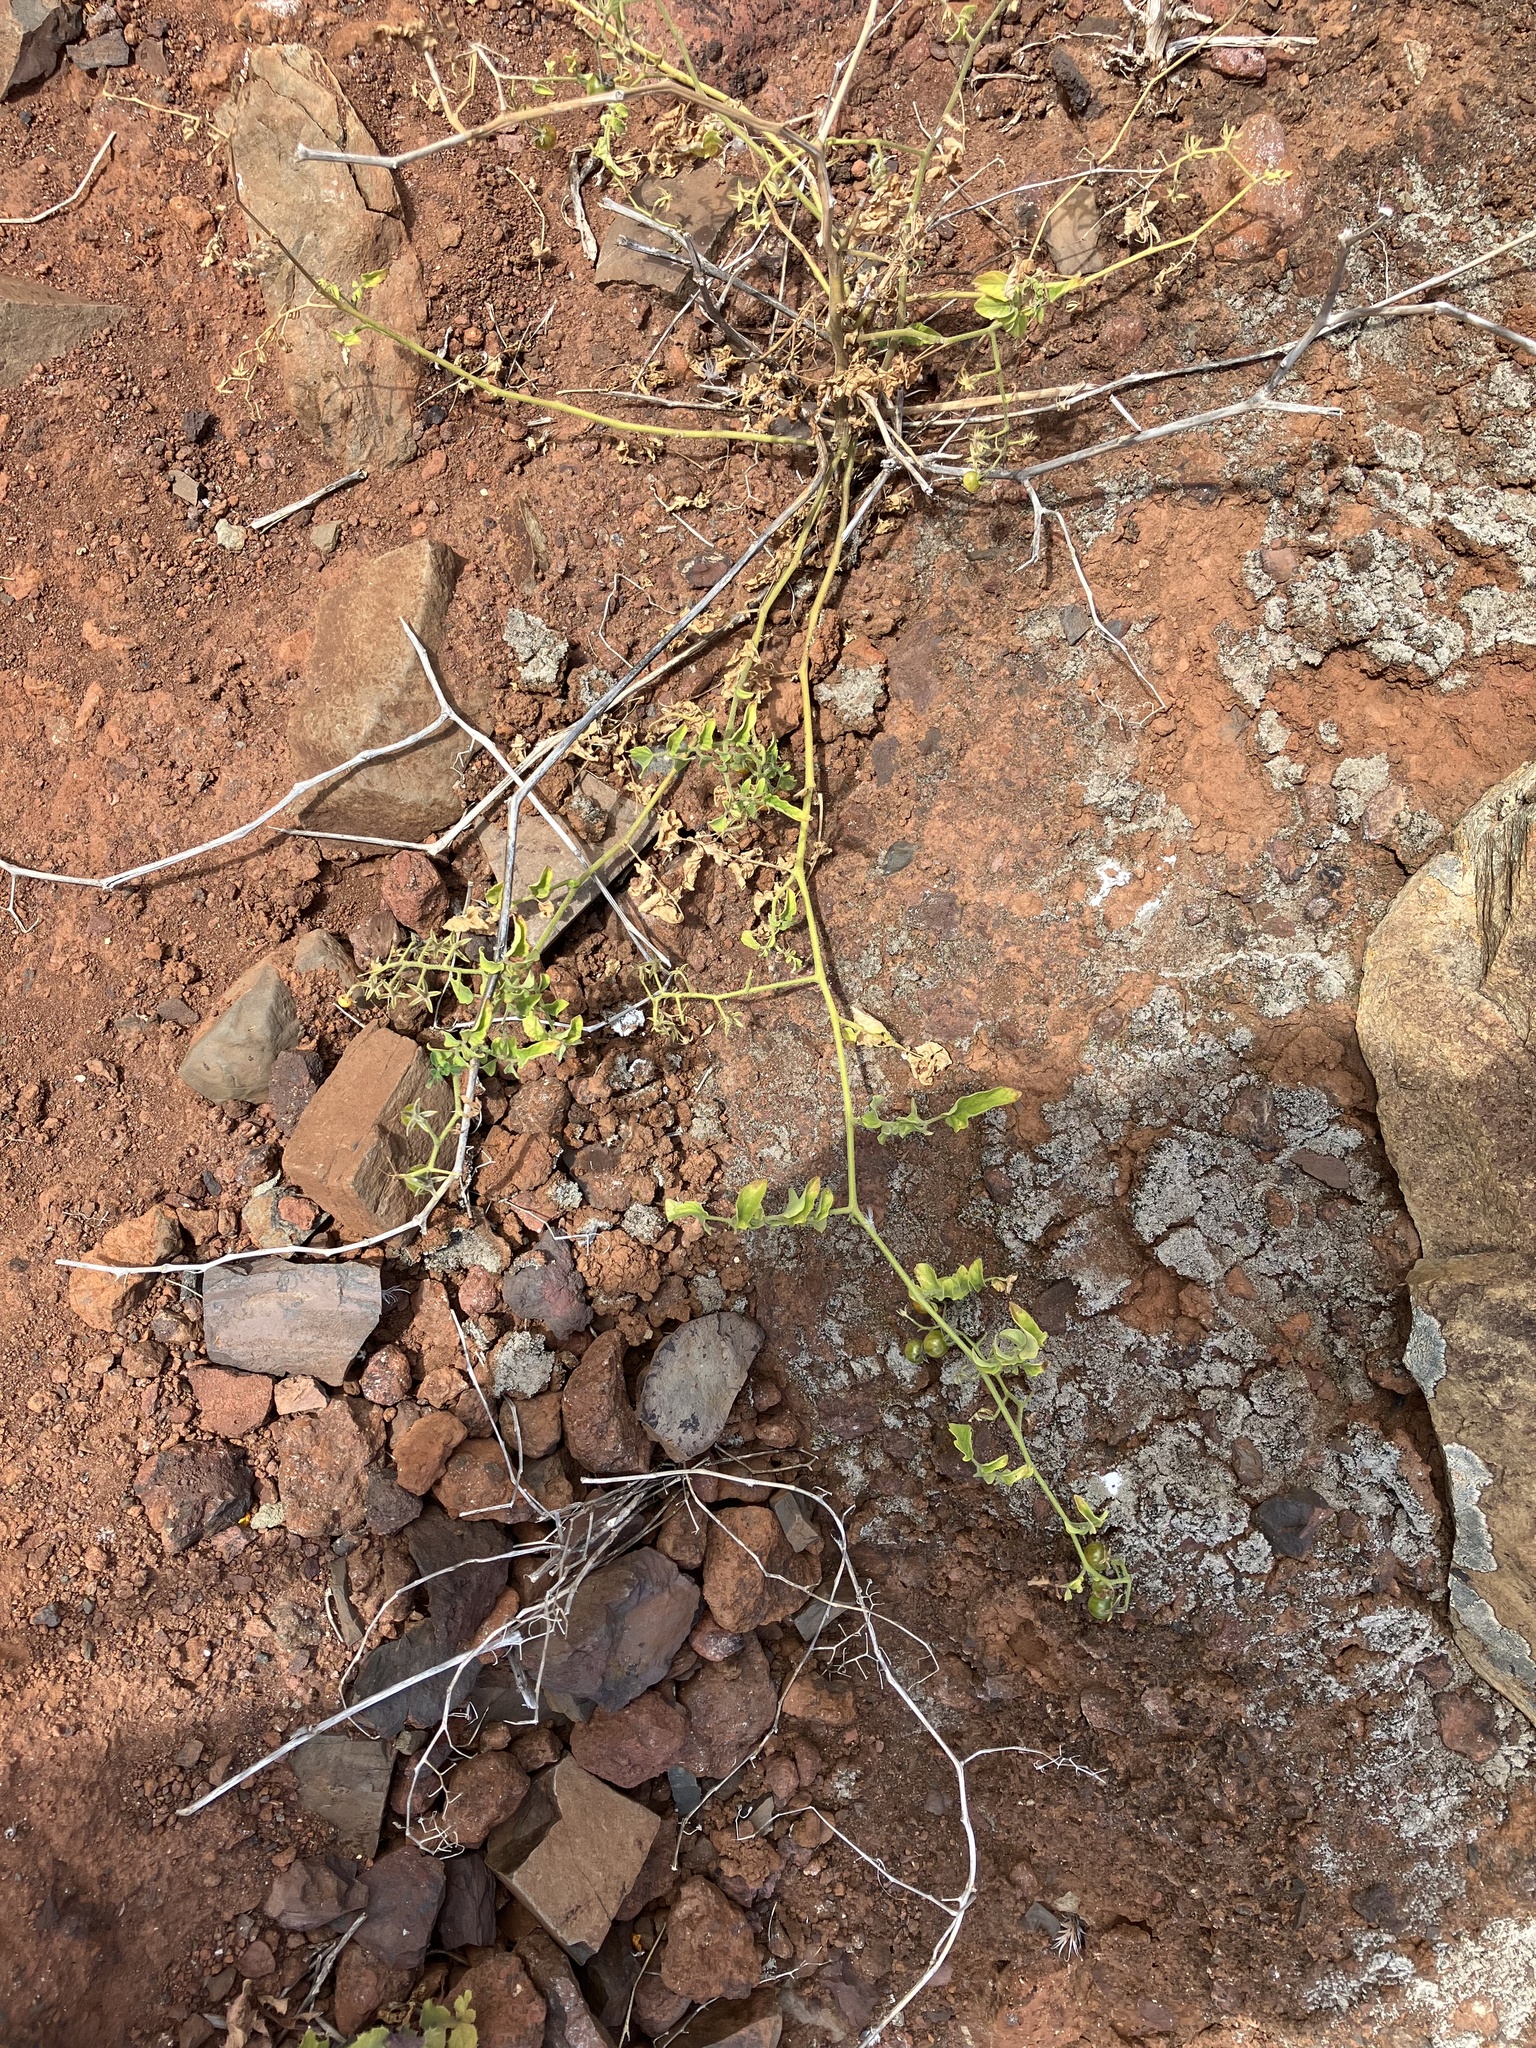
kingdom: Plantae
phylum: Tracheophyta
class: Magnoliopsida
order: Solanales
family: Solanaceae
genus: Solanum
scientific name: Solanum lycopersicum
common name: Garden tomato
